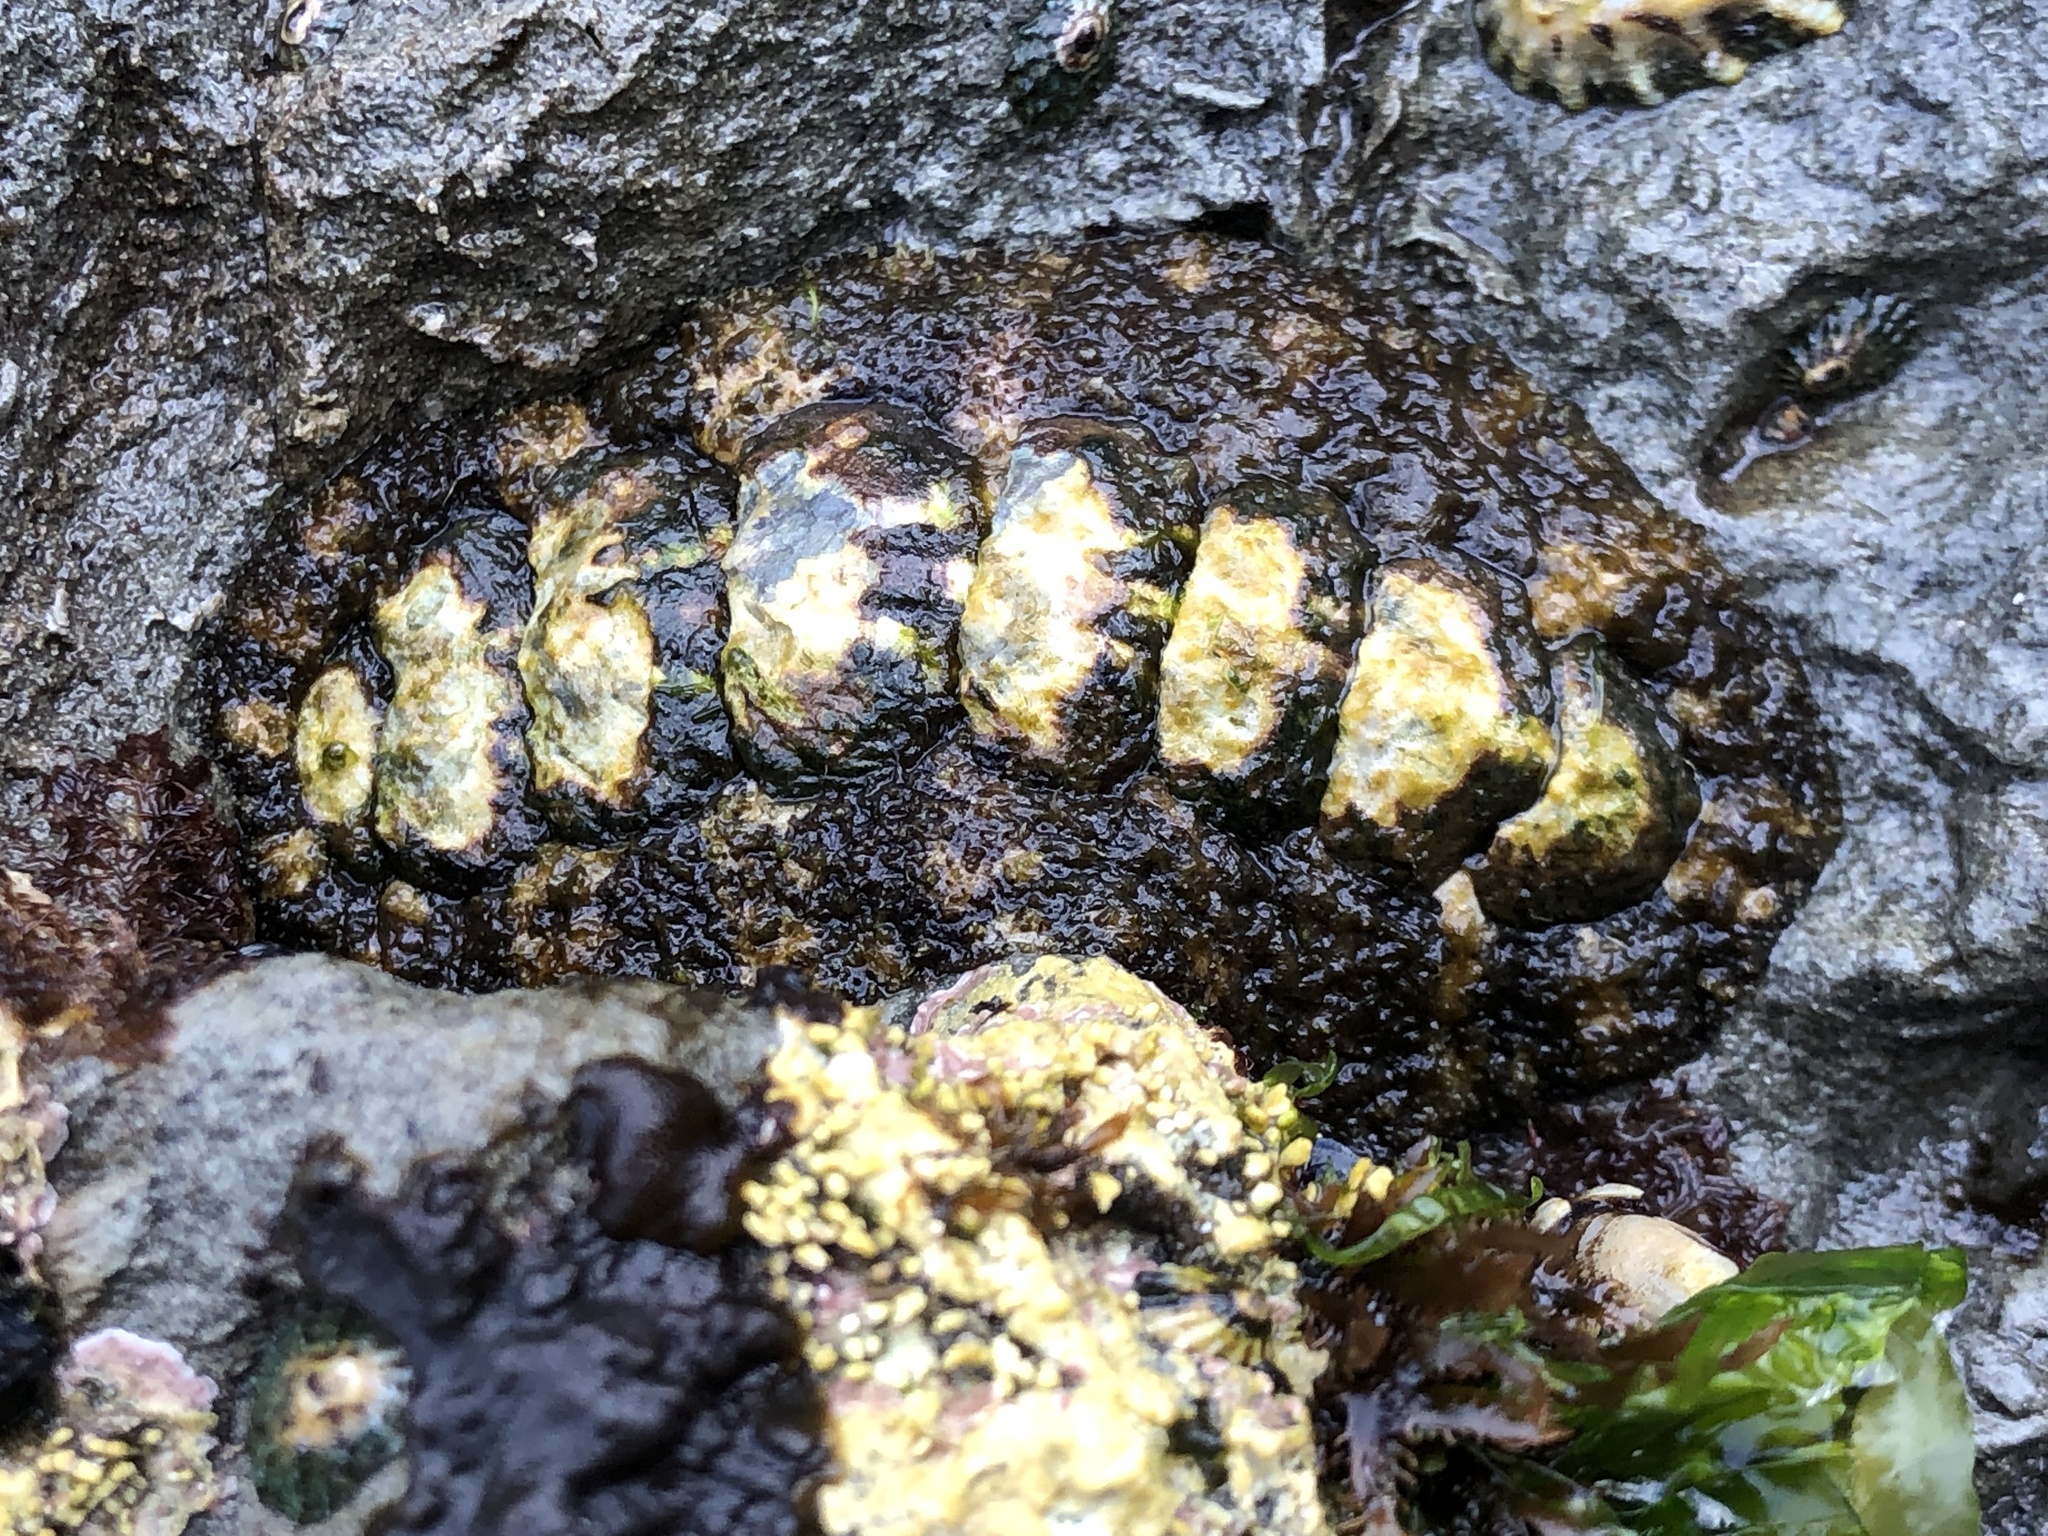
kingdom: Animalia
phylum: Mollusca
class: Polyplacophora
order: Chitonida
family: Tonicellidae
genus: Nuttallina
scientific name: Nuttallina californica
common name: California nuttall chiton
